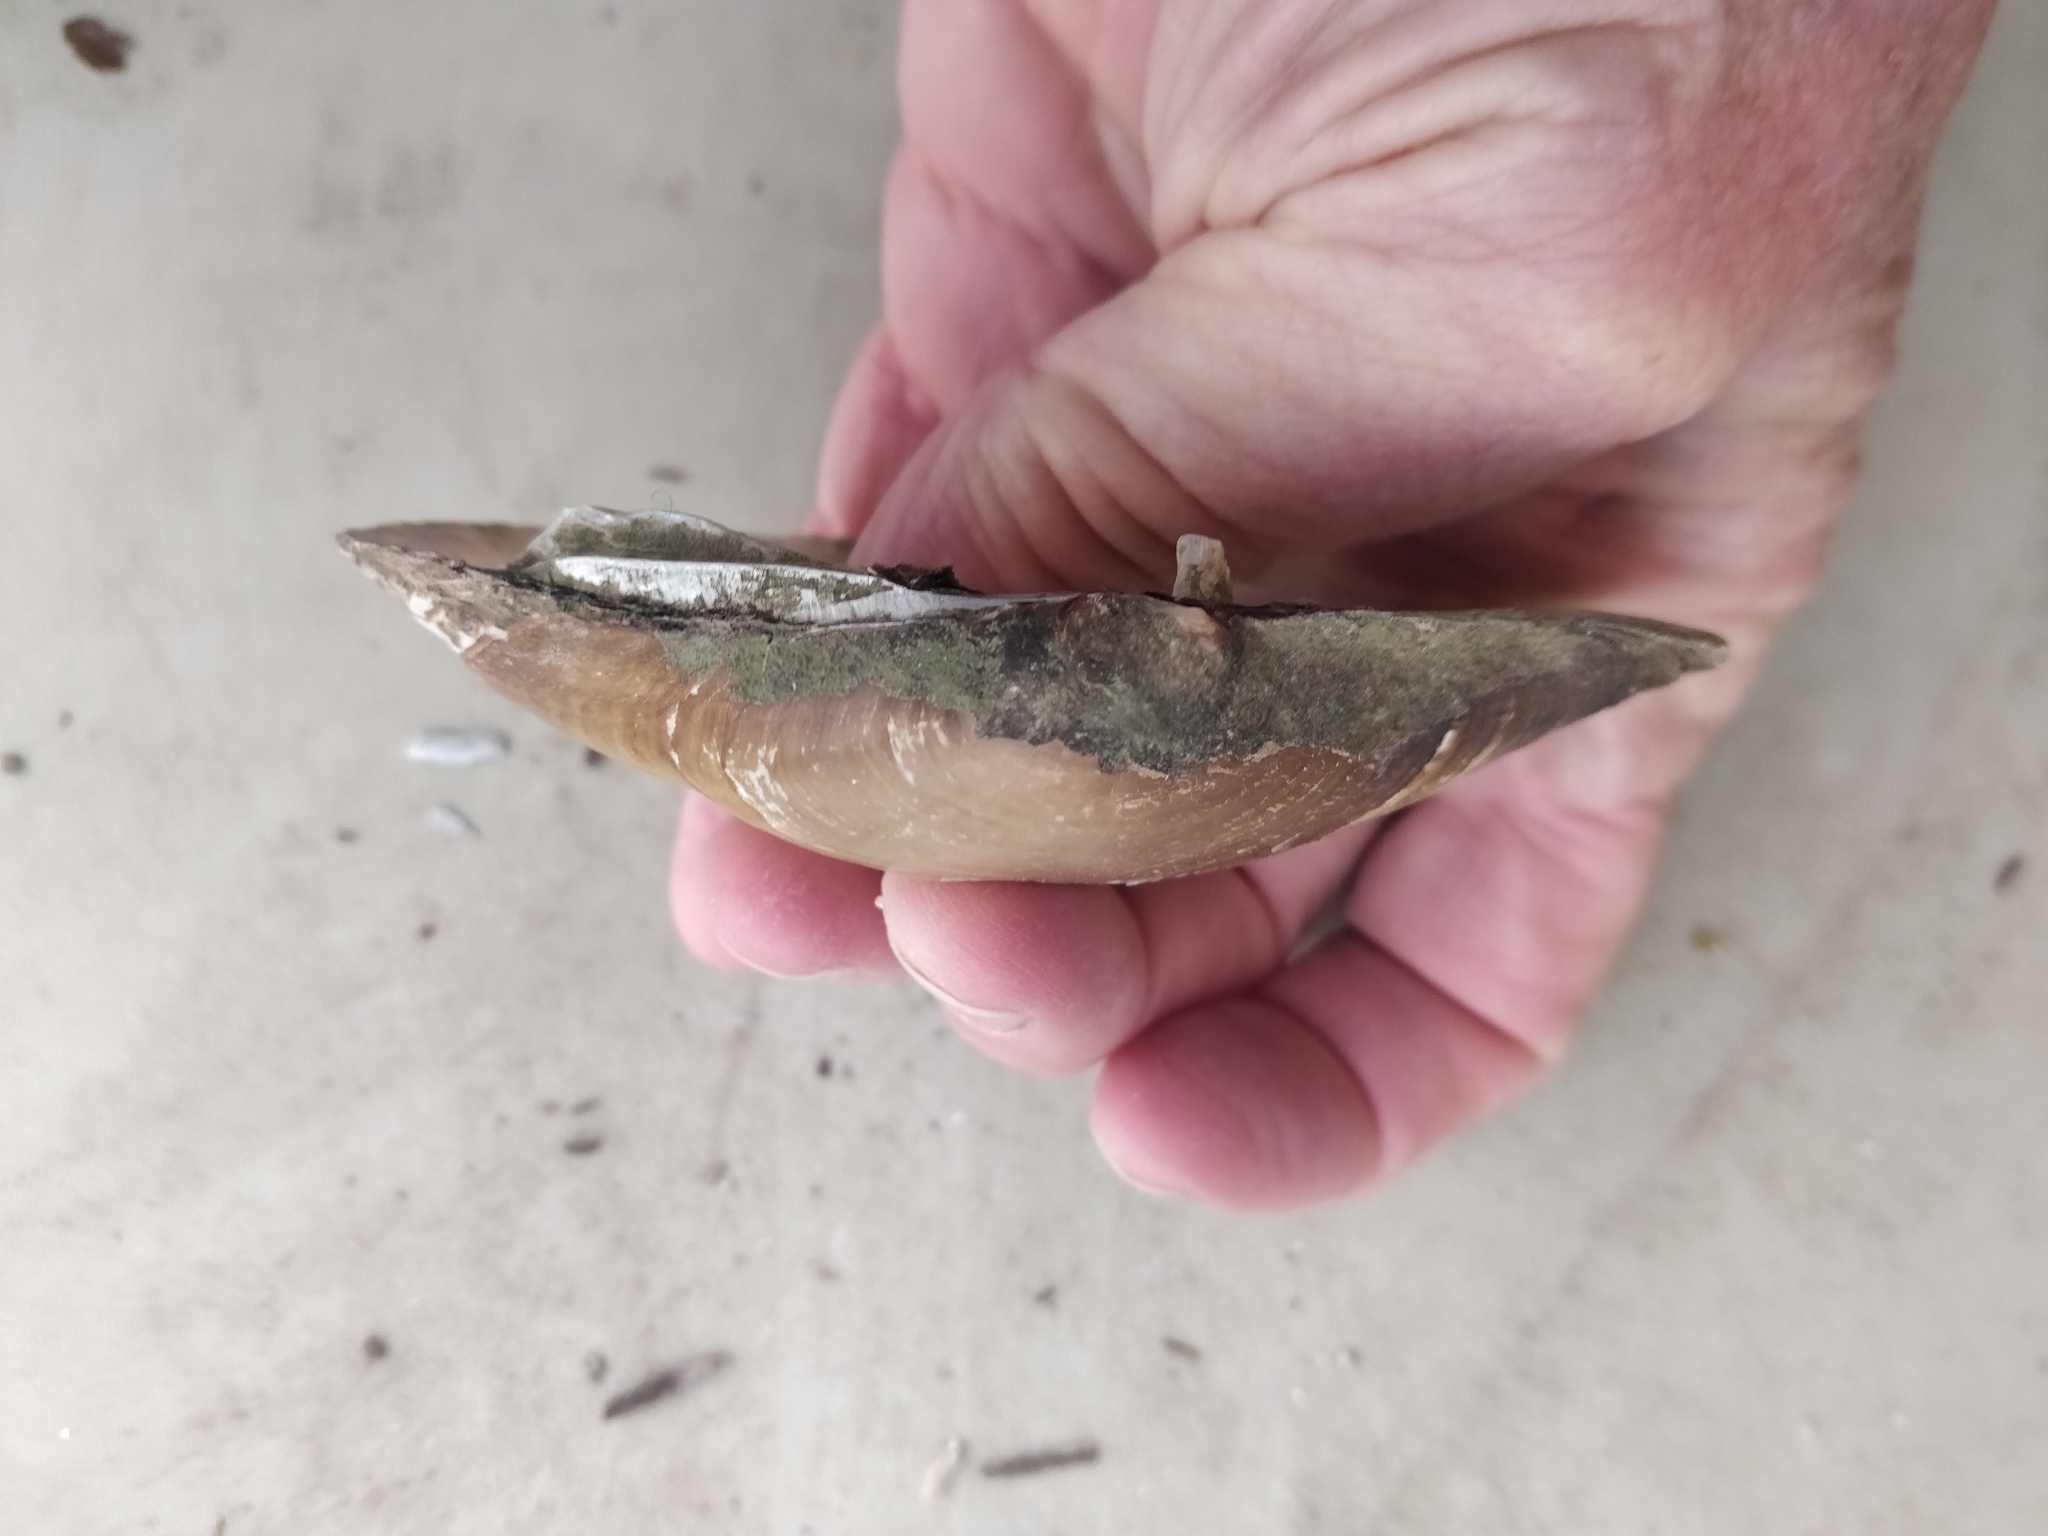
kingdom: Animalia
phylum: Mollusca
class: Bivalvia
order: Unionida
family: Unionidae
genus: Lampsilis
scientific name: Lampsilis cardium
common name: Plain pocketbook
